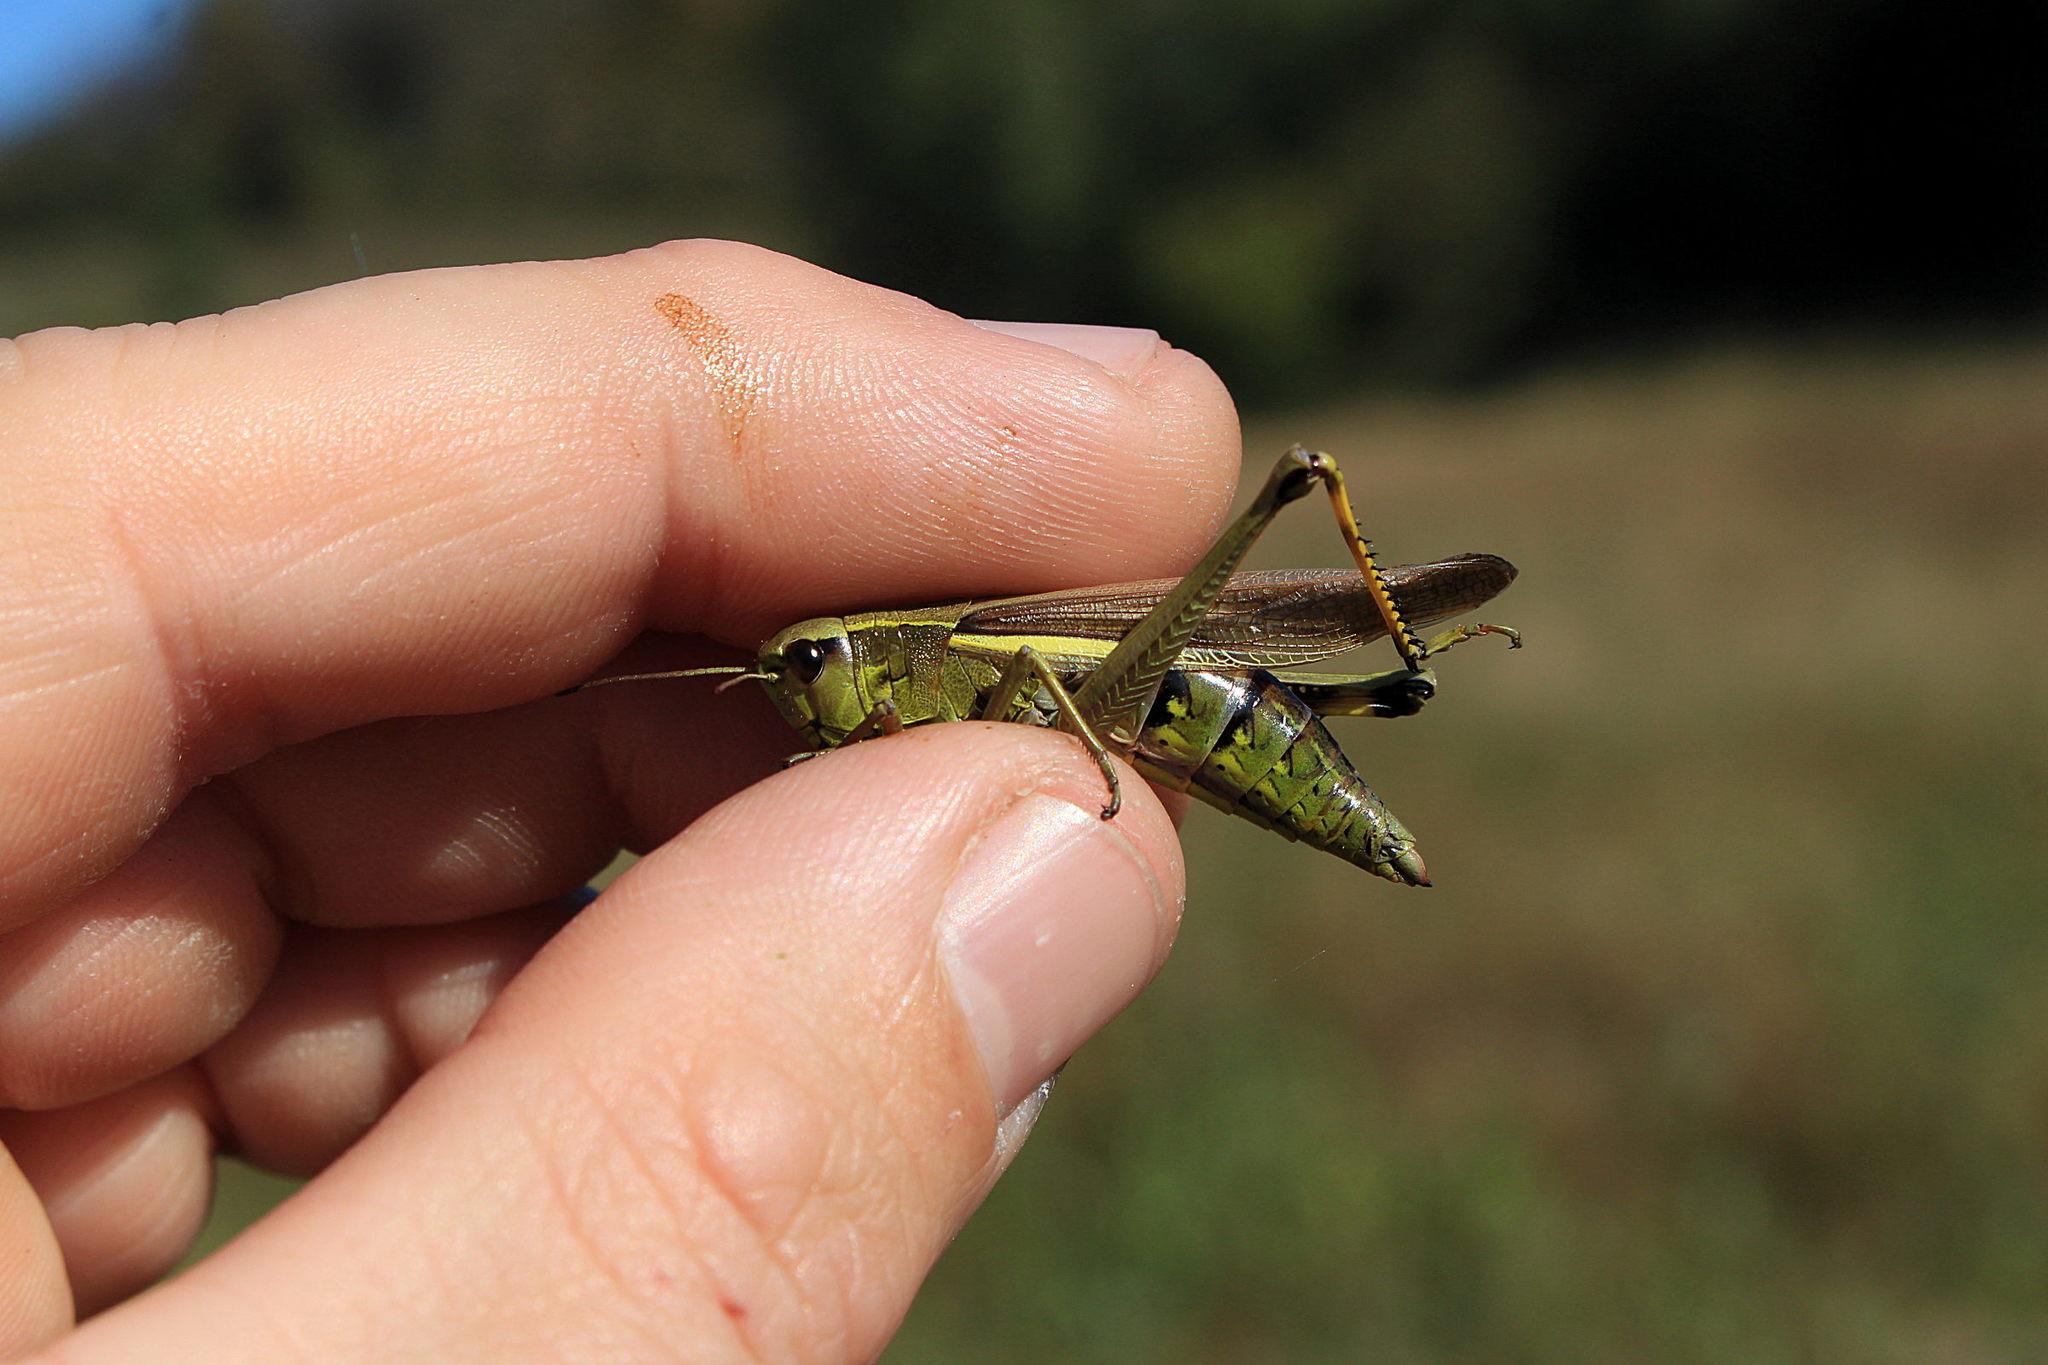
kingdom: Animalia
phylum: Arthropoda
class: Insecta
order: Orthoptera
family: Acrididae
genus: Stethophyma
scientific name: Stethophyma grossum
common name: Large marsh grasshopper
